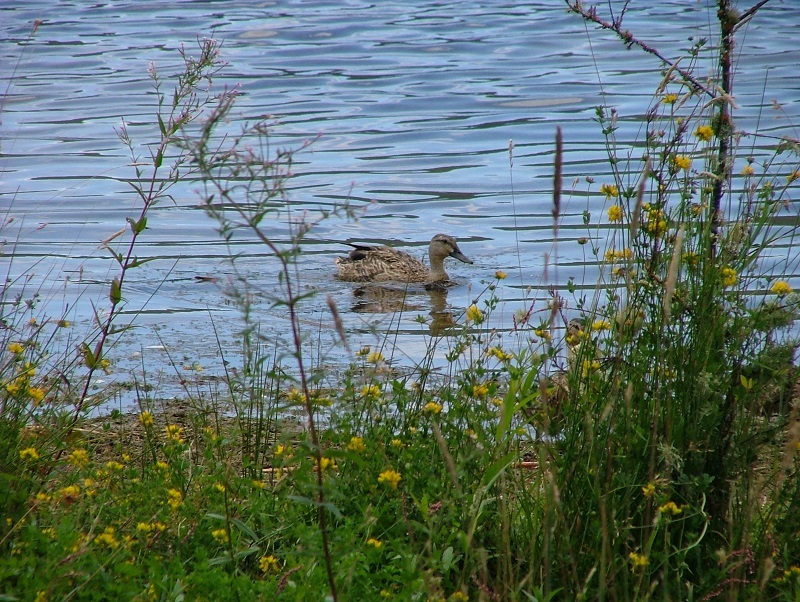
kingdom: Animalia
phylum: Chordata
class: Aves
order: Anseriformes
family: Anatidae
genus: Anas
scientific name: Anas
